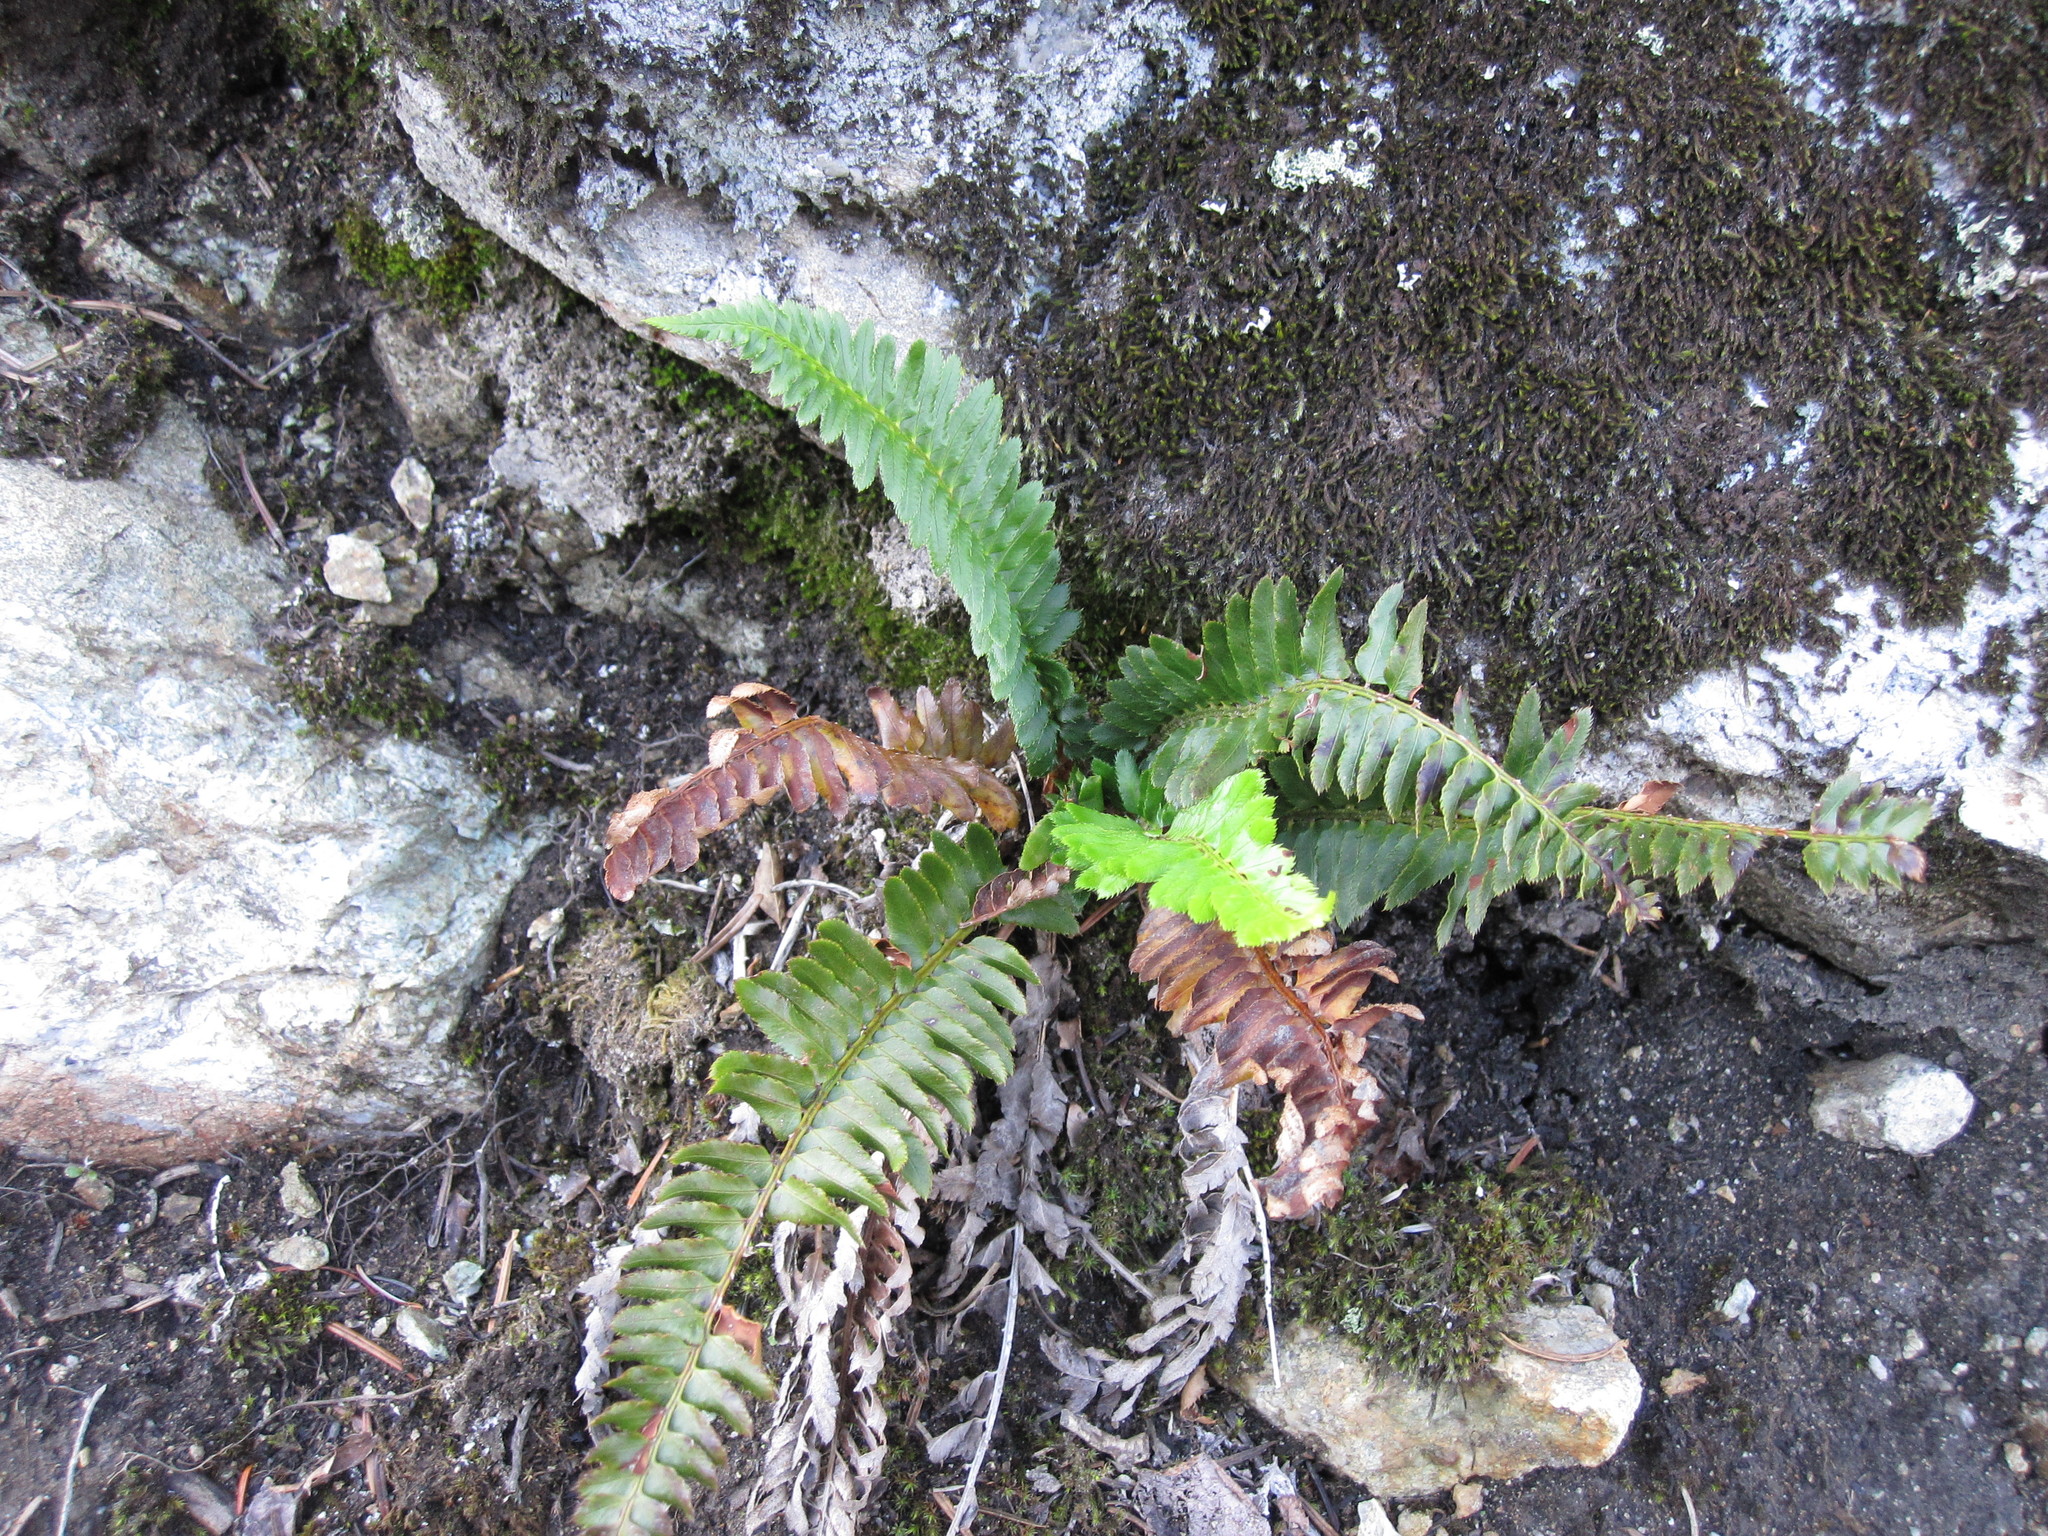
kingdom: Plantae
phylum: Tracheophyta
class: Polypodiopsida
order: Polypodiales
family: Dryopteridaceae
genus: Polystichum
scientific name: Polystichum munitum
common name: Western sword-fern
